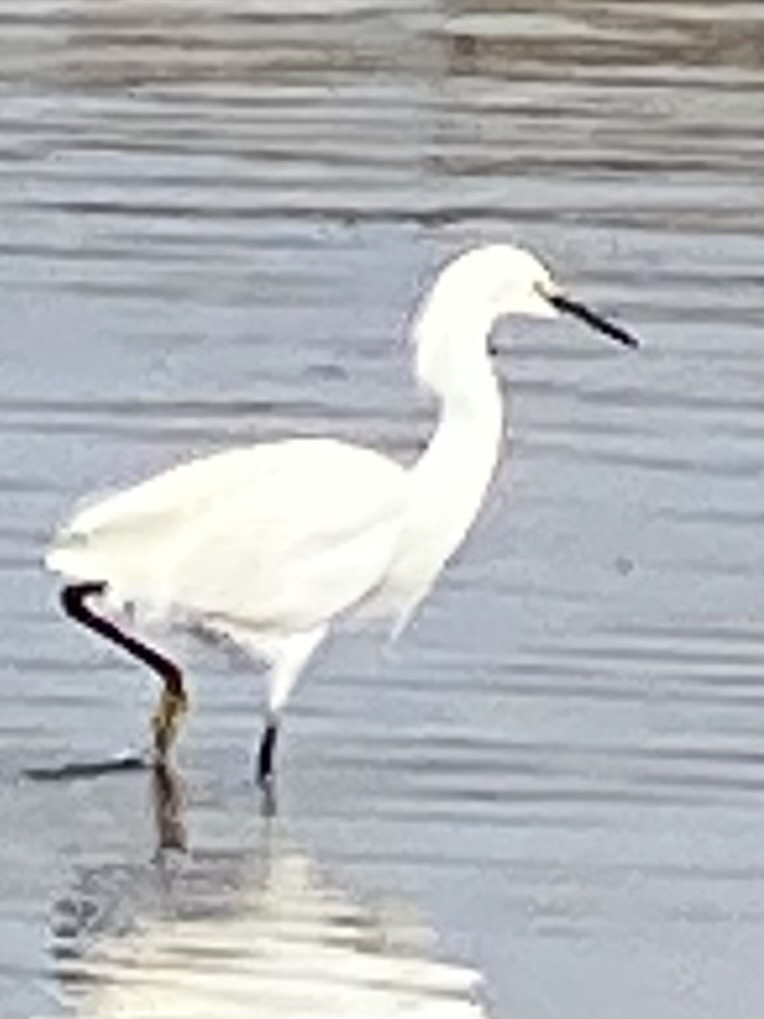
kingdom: Animalia
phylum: Chordata
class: Aves
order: Pelecaniformes
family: Ardeidae
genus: Egretta
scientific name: Egretta thula
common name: Snowy egret
